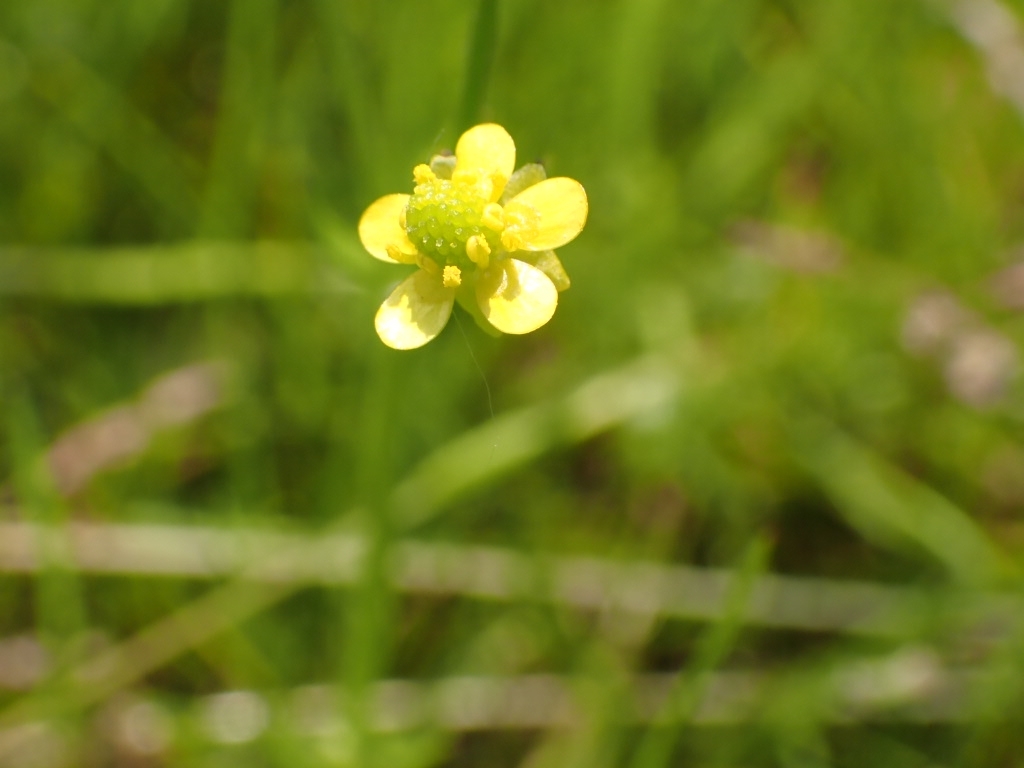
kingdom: Plantae
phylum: Tracheophyta
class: Magnoliopsida
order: Ranunculales
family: Ranunculaceae
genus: Ranunculus
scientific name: Ranunculus sceleratus
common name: Celery-leaved buttercup
